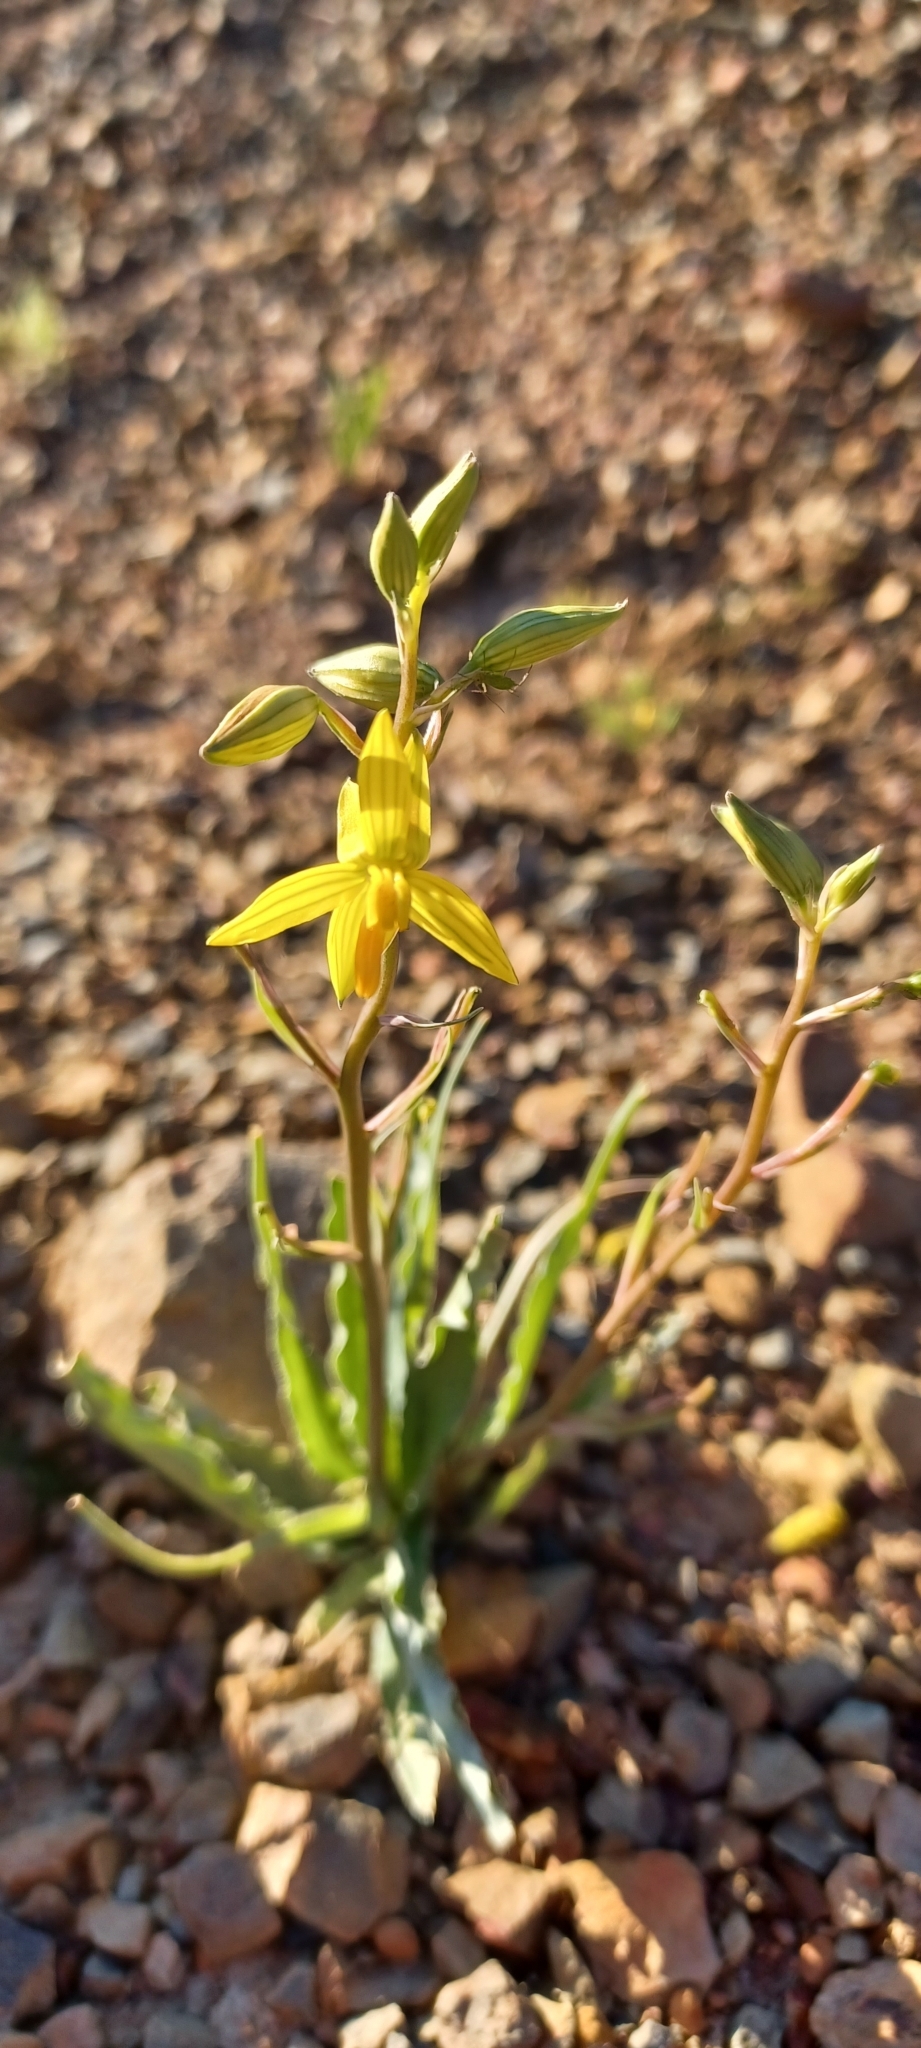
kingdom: Plantae
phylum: Tracheophyta
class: Liliopsida
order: Asparagales
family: Tecophilaeaceae
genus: Cyanella
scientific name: Cyanella lutea
